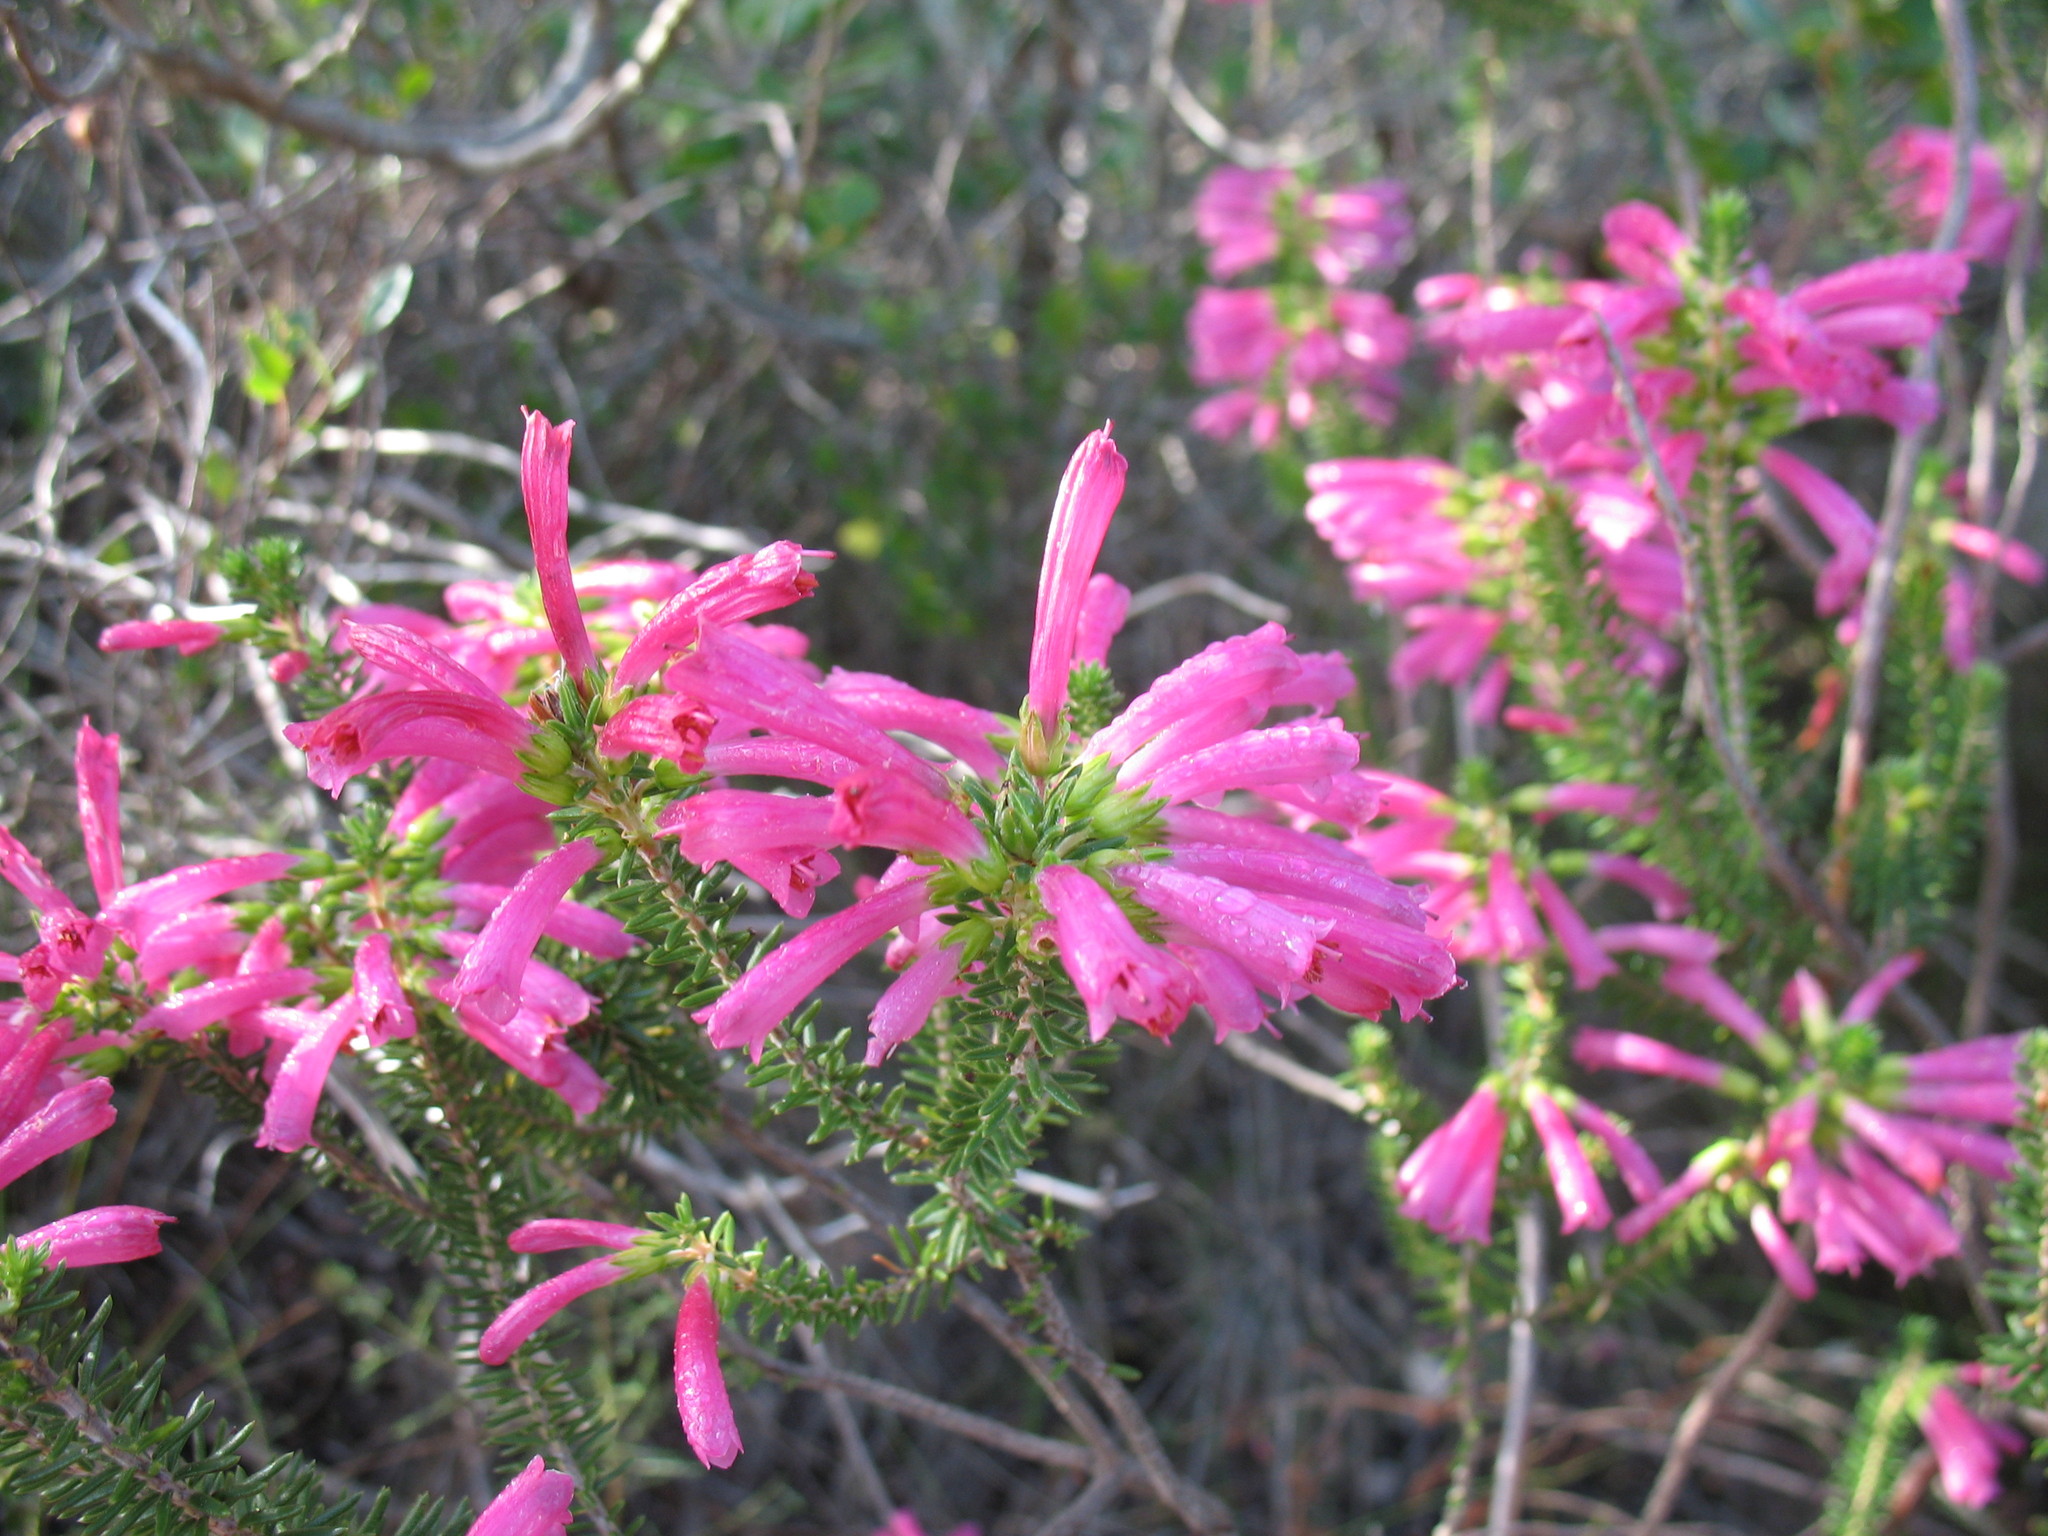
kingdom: Plantae
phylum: Tracheophyta
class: Magnoliopsida
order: Ericales
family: Ericaceae
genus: Erica
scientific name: Erica abietina
